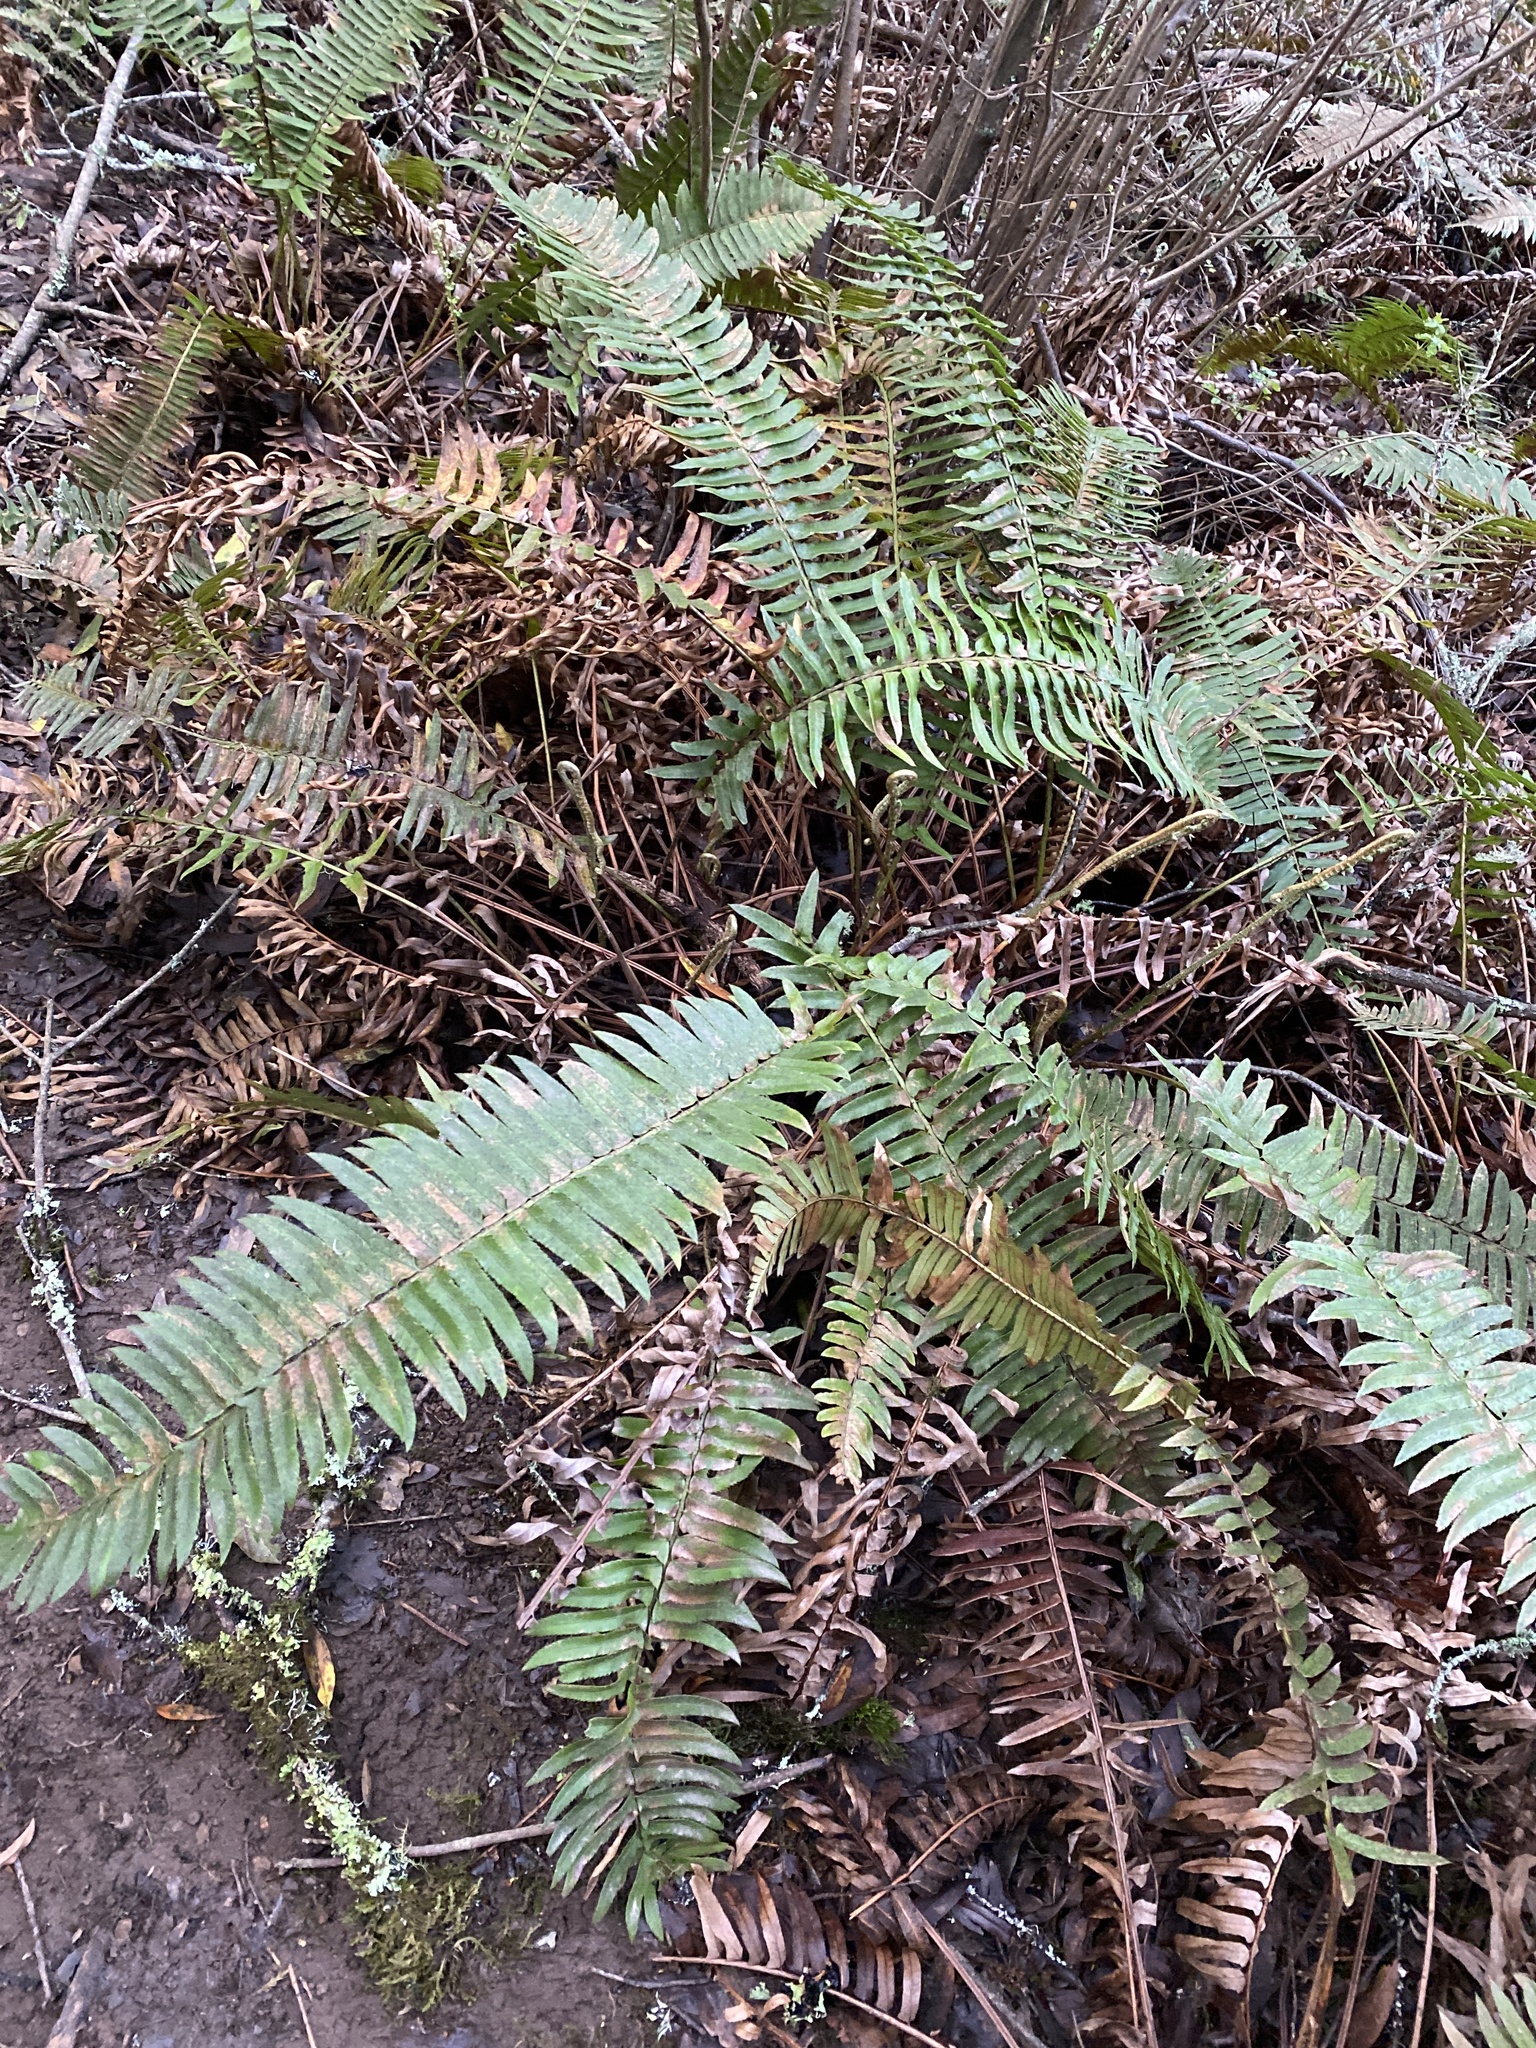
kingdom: Plantae
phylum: Tracheophyta
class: Polypodiopsida
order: Polypodiales
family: Dryopteridaceae
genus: Polystichum
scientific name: Polystichum munitum
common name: Western sword-fern
